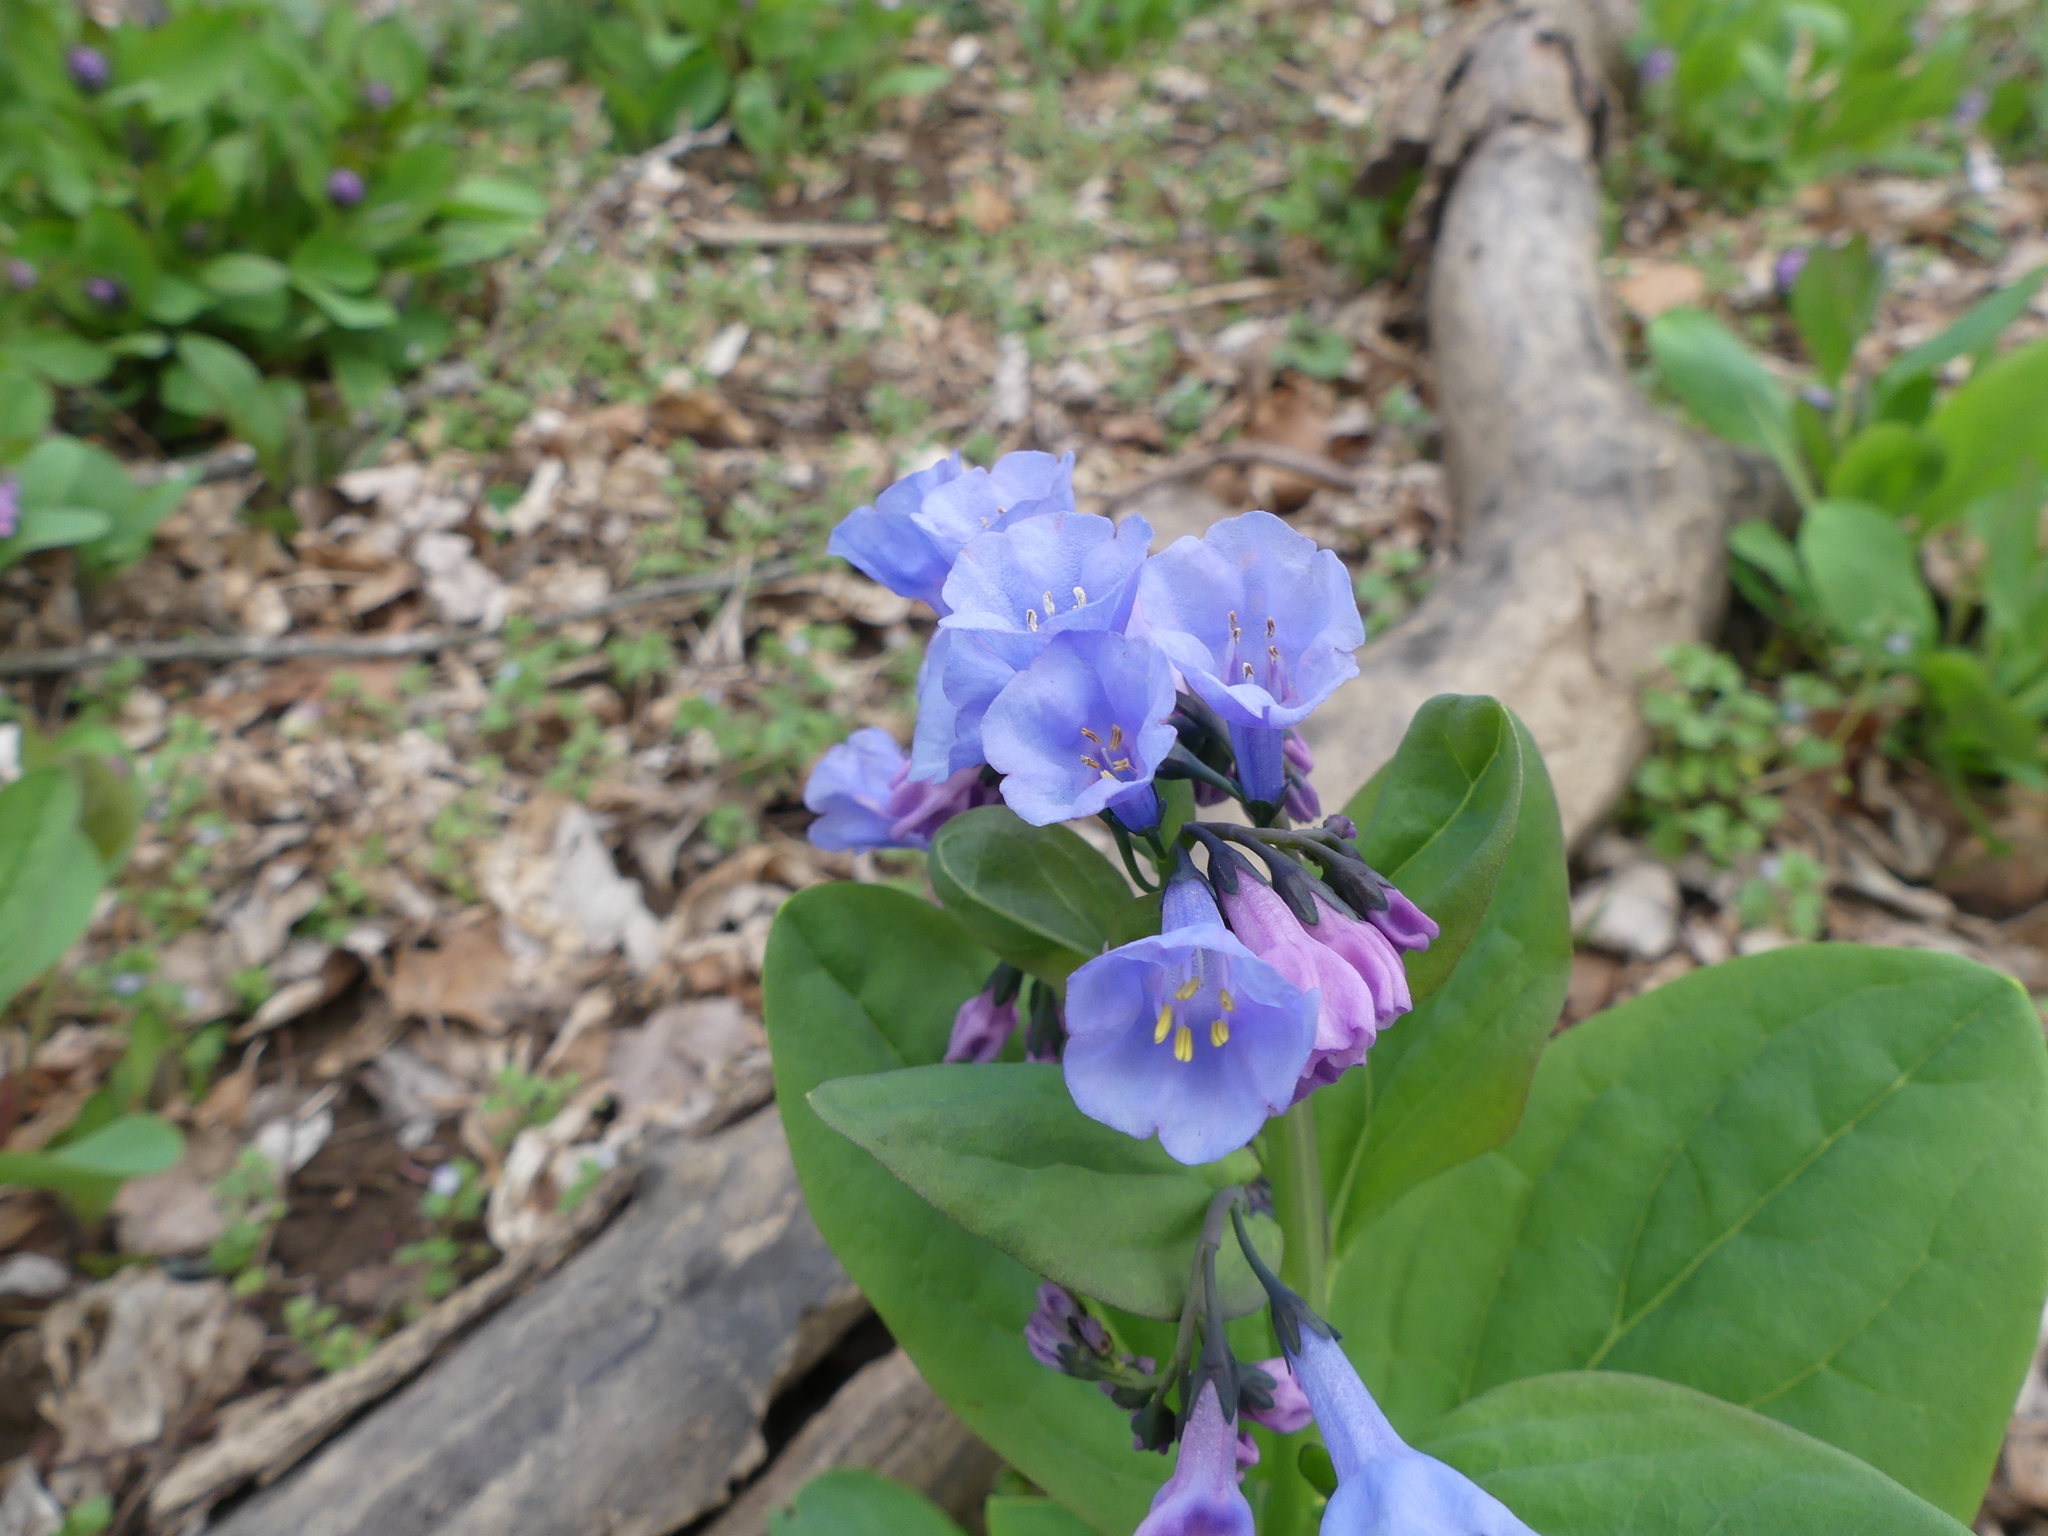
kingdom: Plantae
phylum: Tracheophyta
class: Magnoliopsida
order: Boraginales
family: Boraginaceae
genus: Mertensia
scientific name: Mertensia virginica
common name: Virginia bluebells
